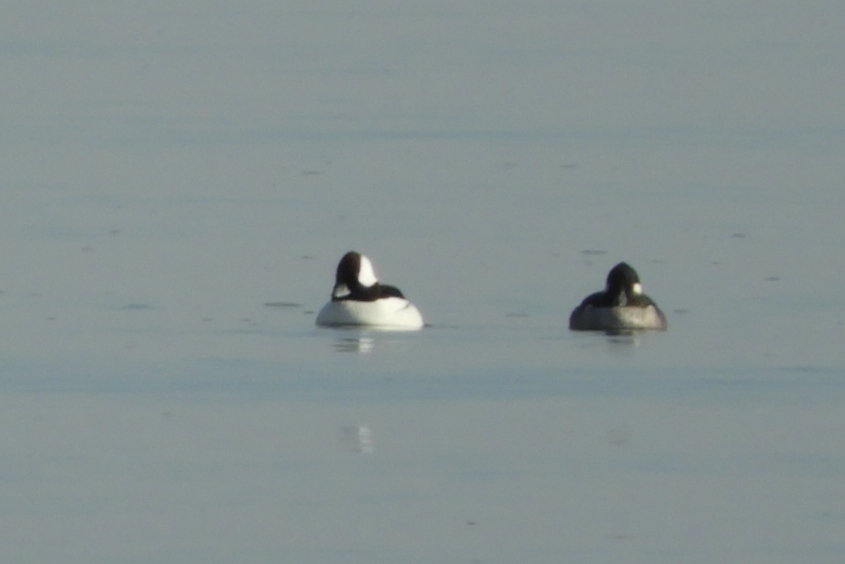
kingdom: Animalia
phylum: Chordata
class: Aves
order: Anseriformes
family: Anatidae
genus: Bucephala
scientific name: Bucephala albeola
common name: Bufflehead
